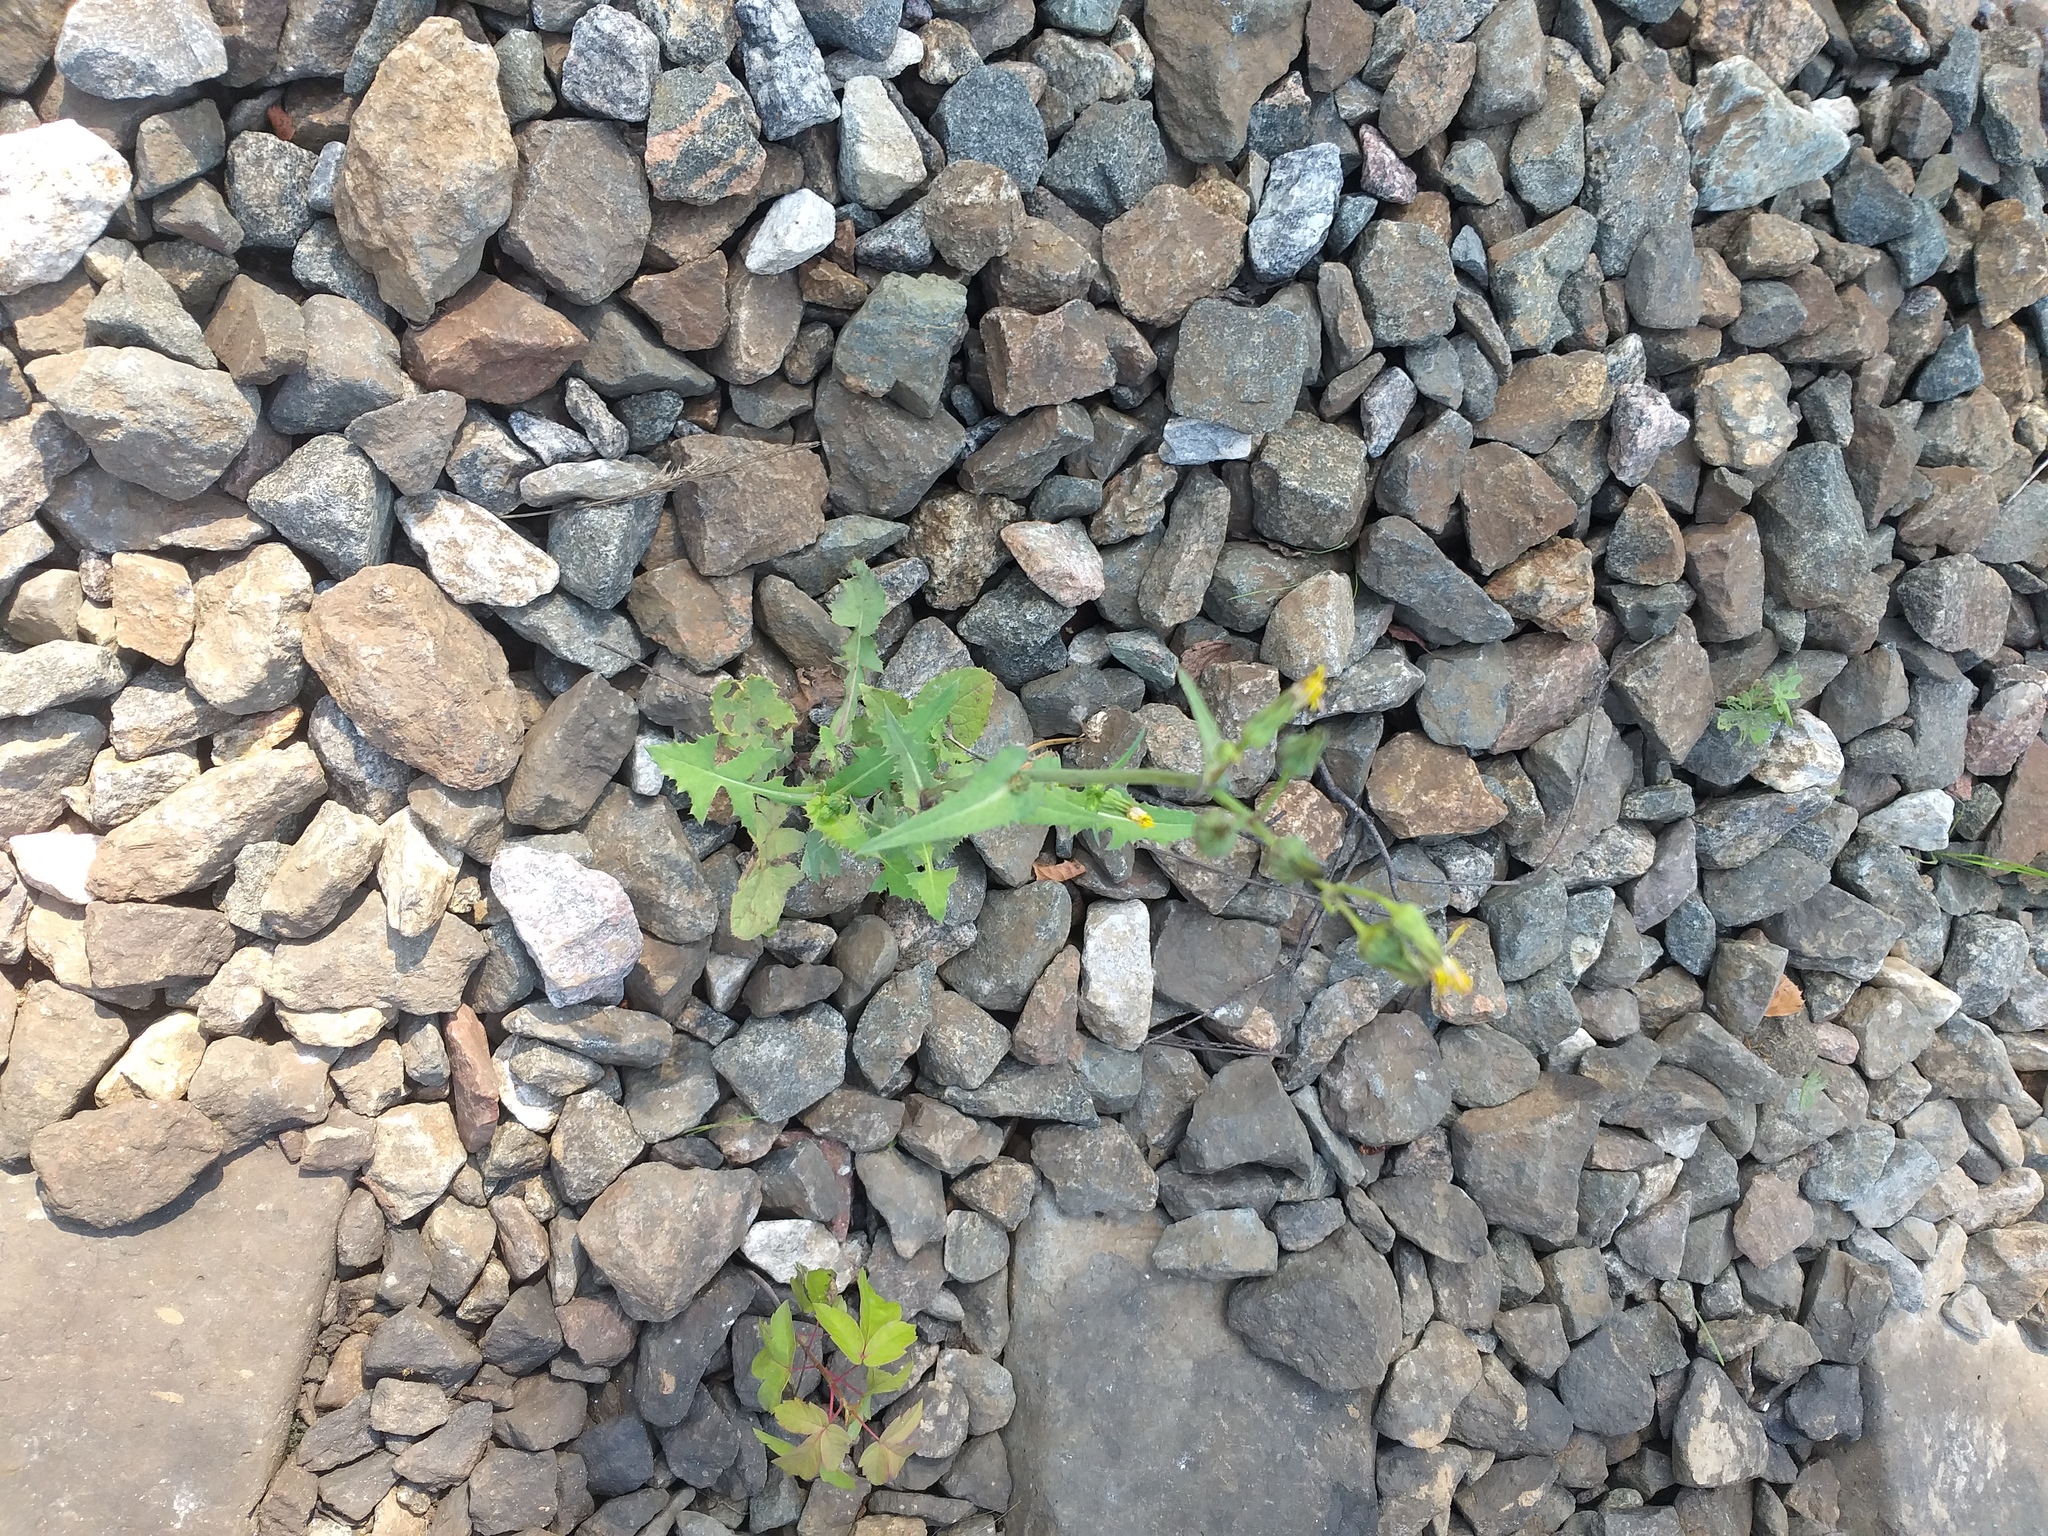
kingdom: Plantae
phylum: Tracheophyta
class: Magnoliopsida
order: Asterales
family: Asteraceae
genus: Sonchus
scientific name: Sonchus oleraceus
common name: Common sowthistle
